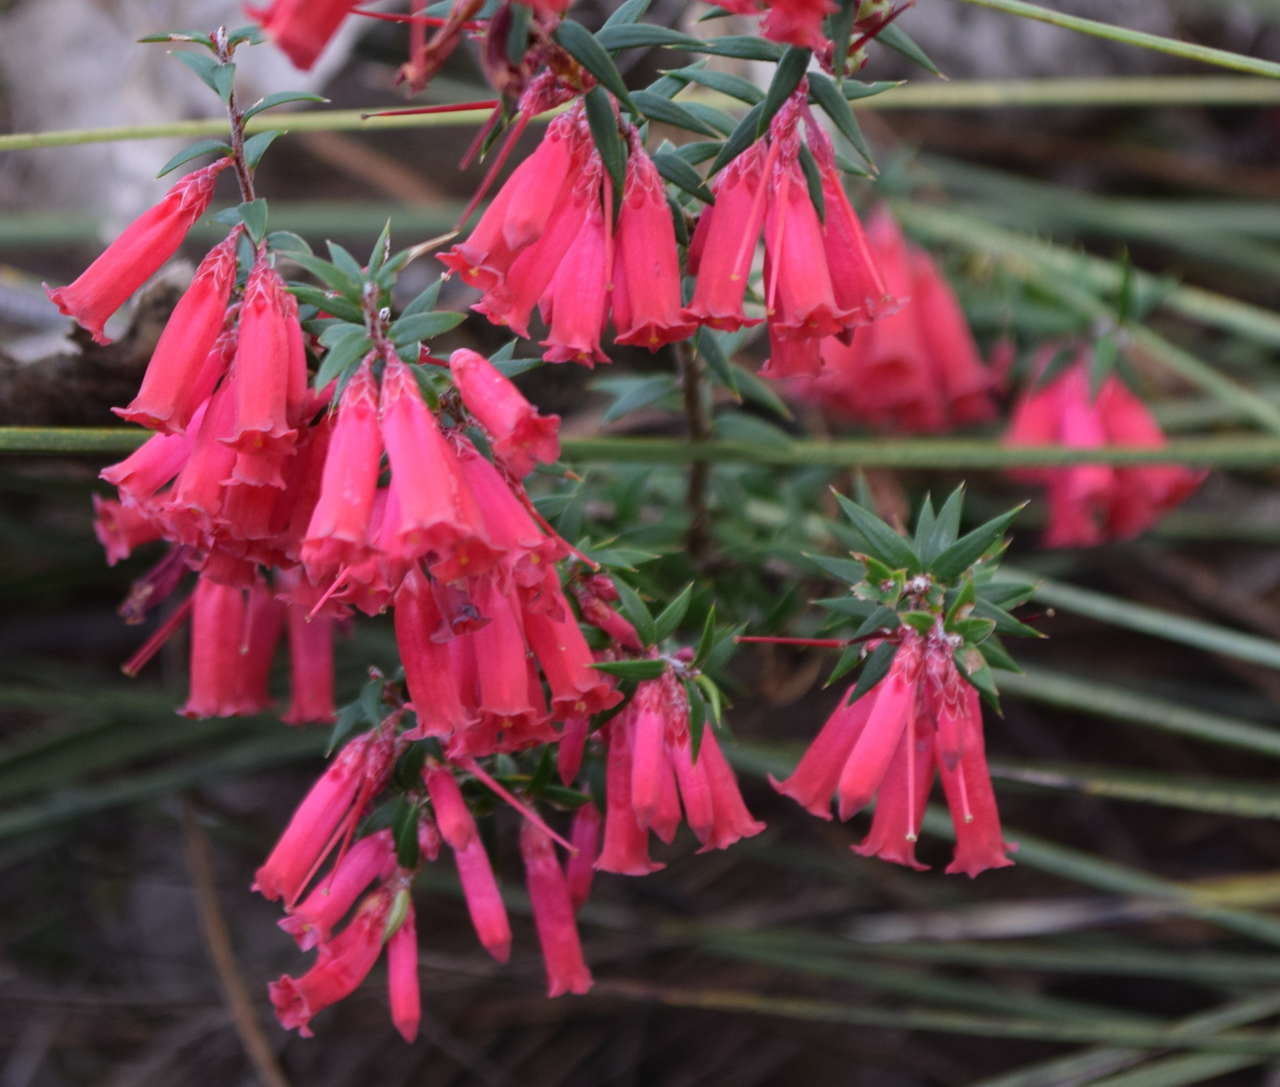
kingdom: Plantae
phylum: Tracheophyta
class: Magnoliopsida
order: Ericales
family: Ericaceae
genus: Epacris
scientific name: Epacris impressa
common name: Common-heath
